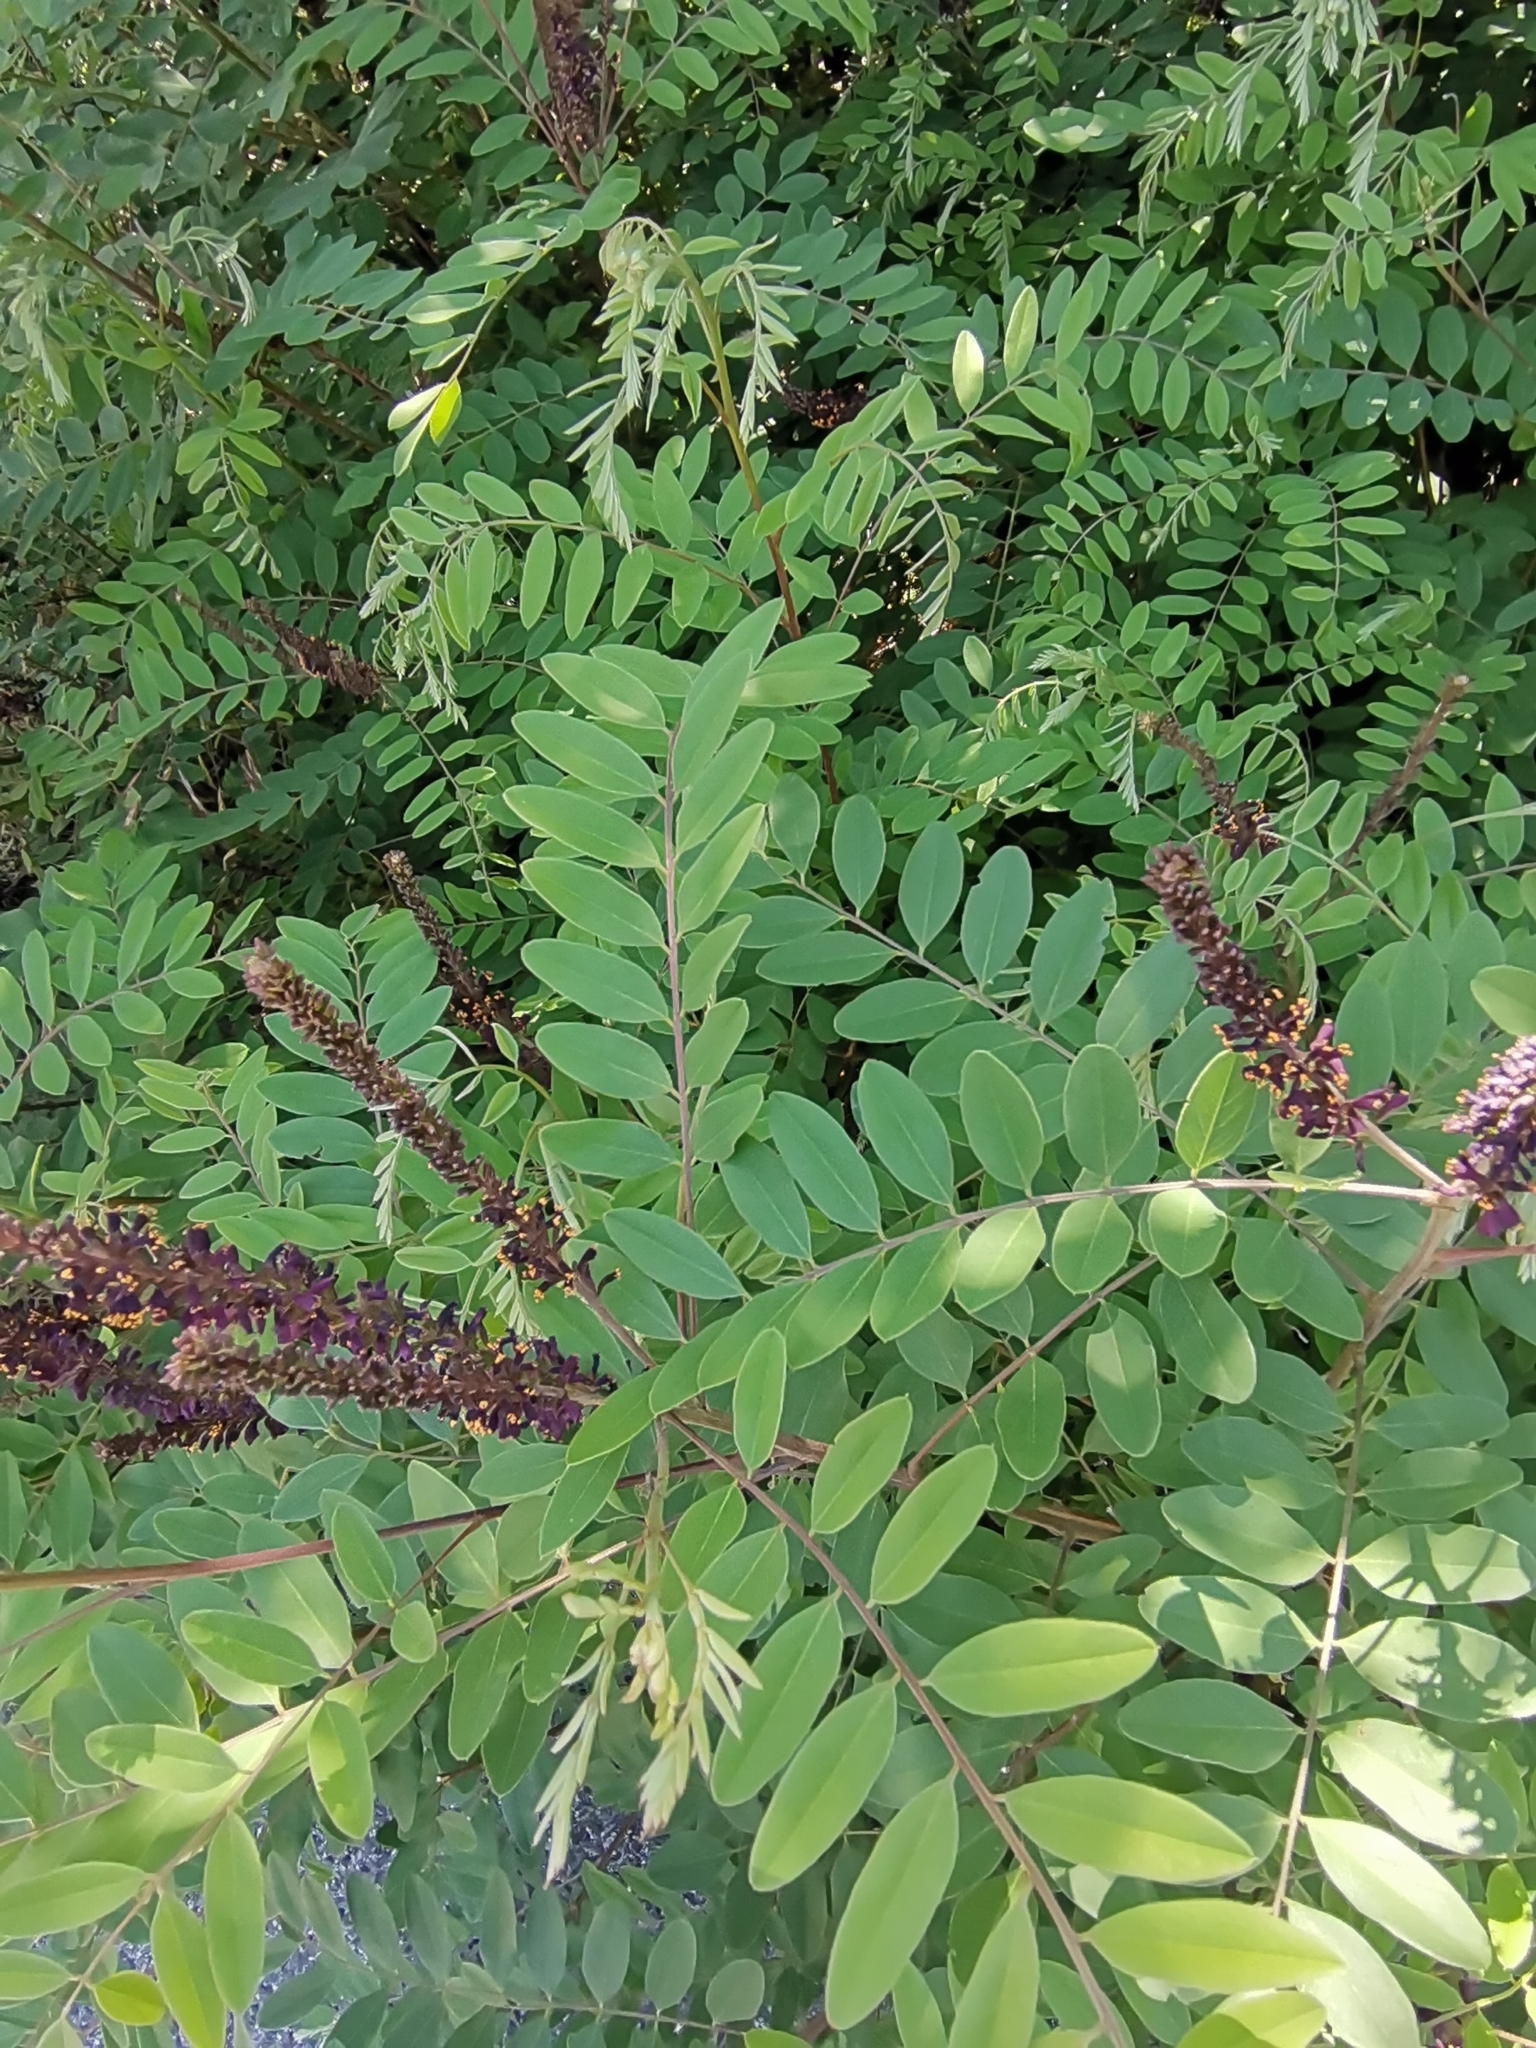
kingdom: Plantae
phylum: Tracheophyta
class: Magnoliopsida
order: Fabales
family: Fabaceae
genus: Amorpha
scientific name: Amorpha fruticosa
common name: False indigo
